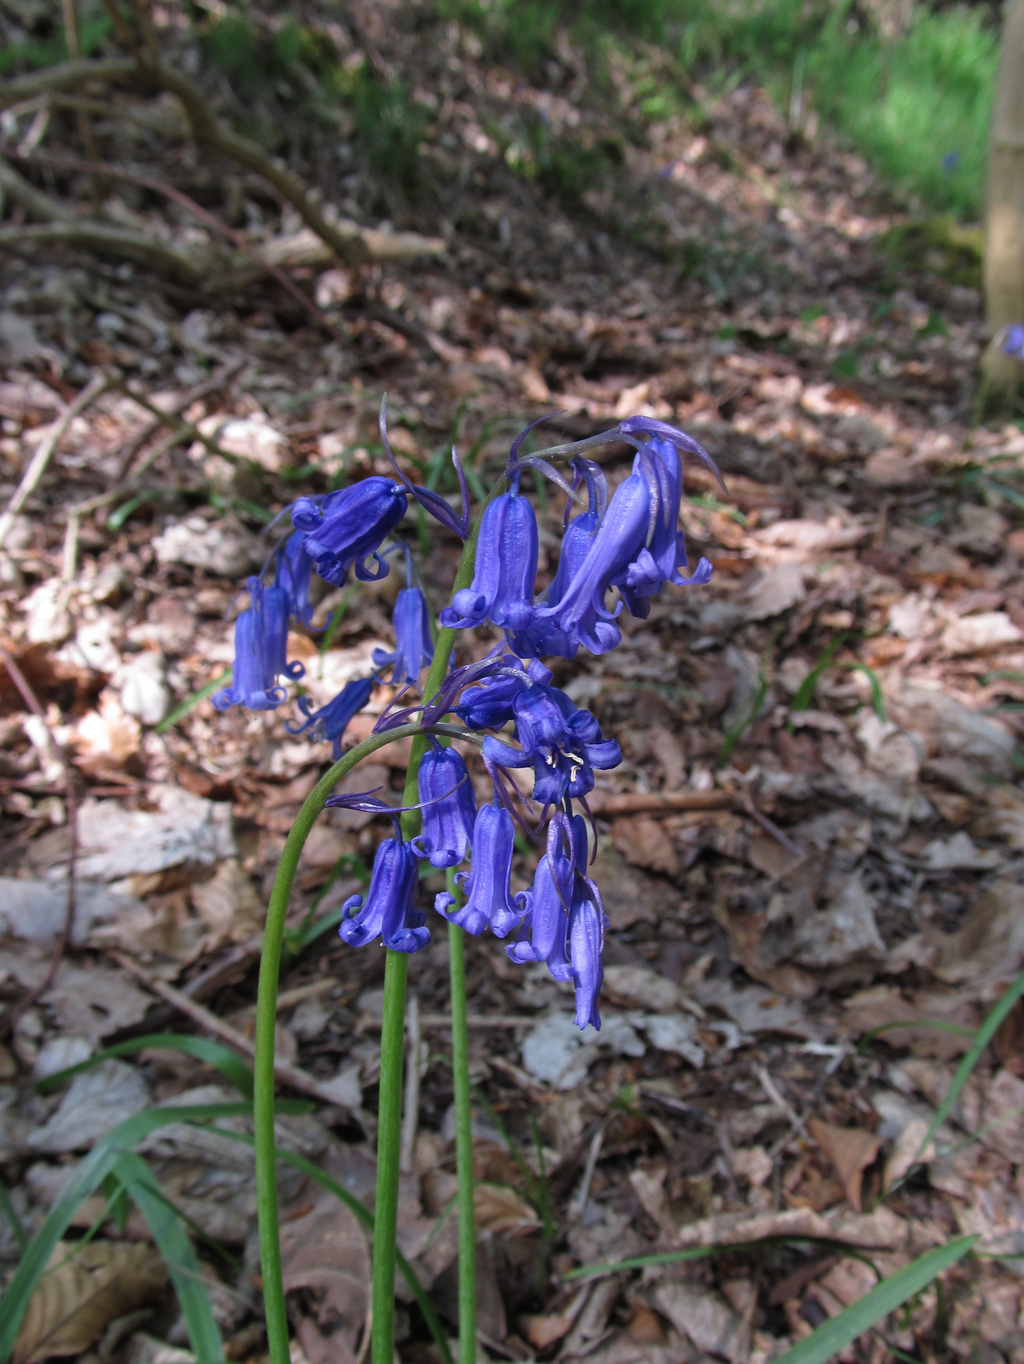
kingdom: Plantae
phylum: Tracheophyta
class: Liliopsida
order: Asparagales
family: Asparagaceae
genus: Hyacinthoides
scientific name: Hyacinthoides non-scripta
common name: Bluebell
